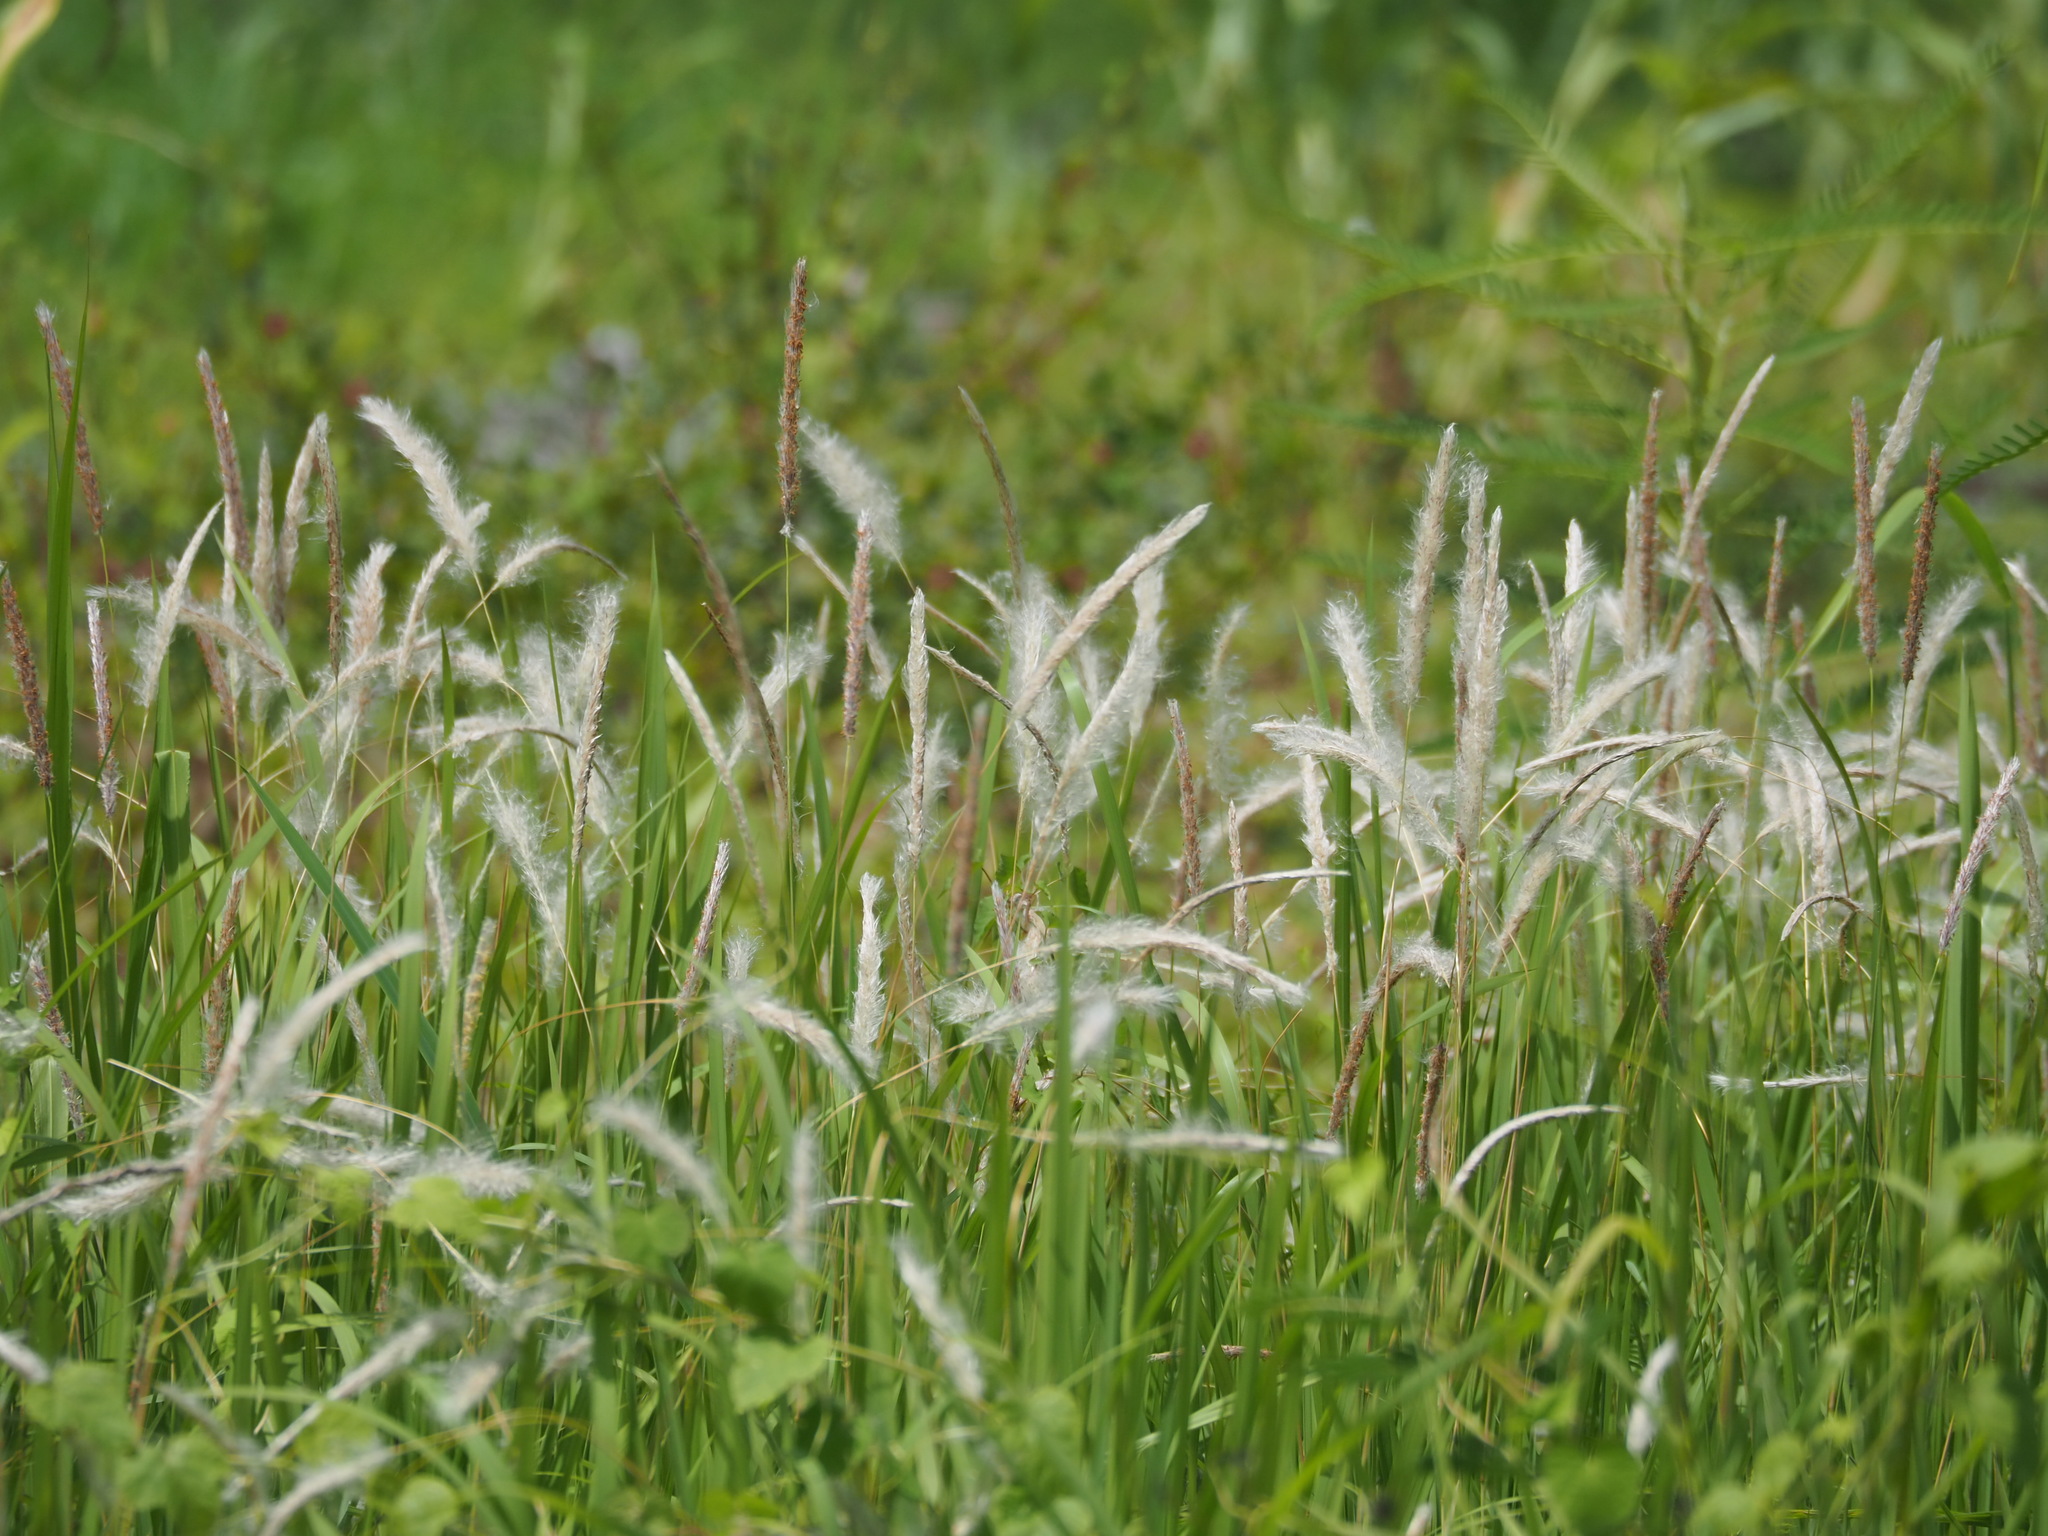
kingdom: Plantae
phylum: Tracheophyta
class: Liliopsida
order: Poales
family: Poaceae
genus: Imperata
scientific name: Imperata cylindrica
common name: Cogongrass
